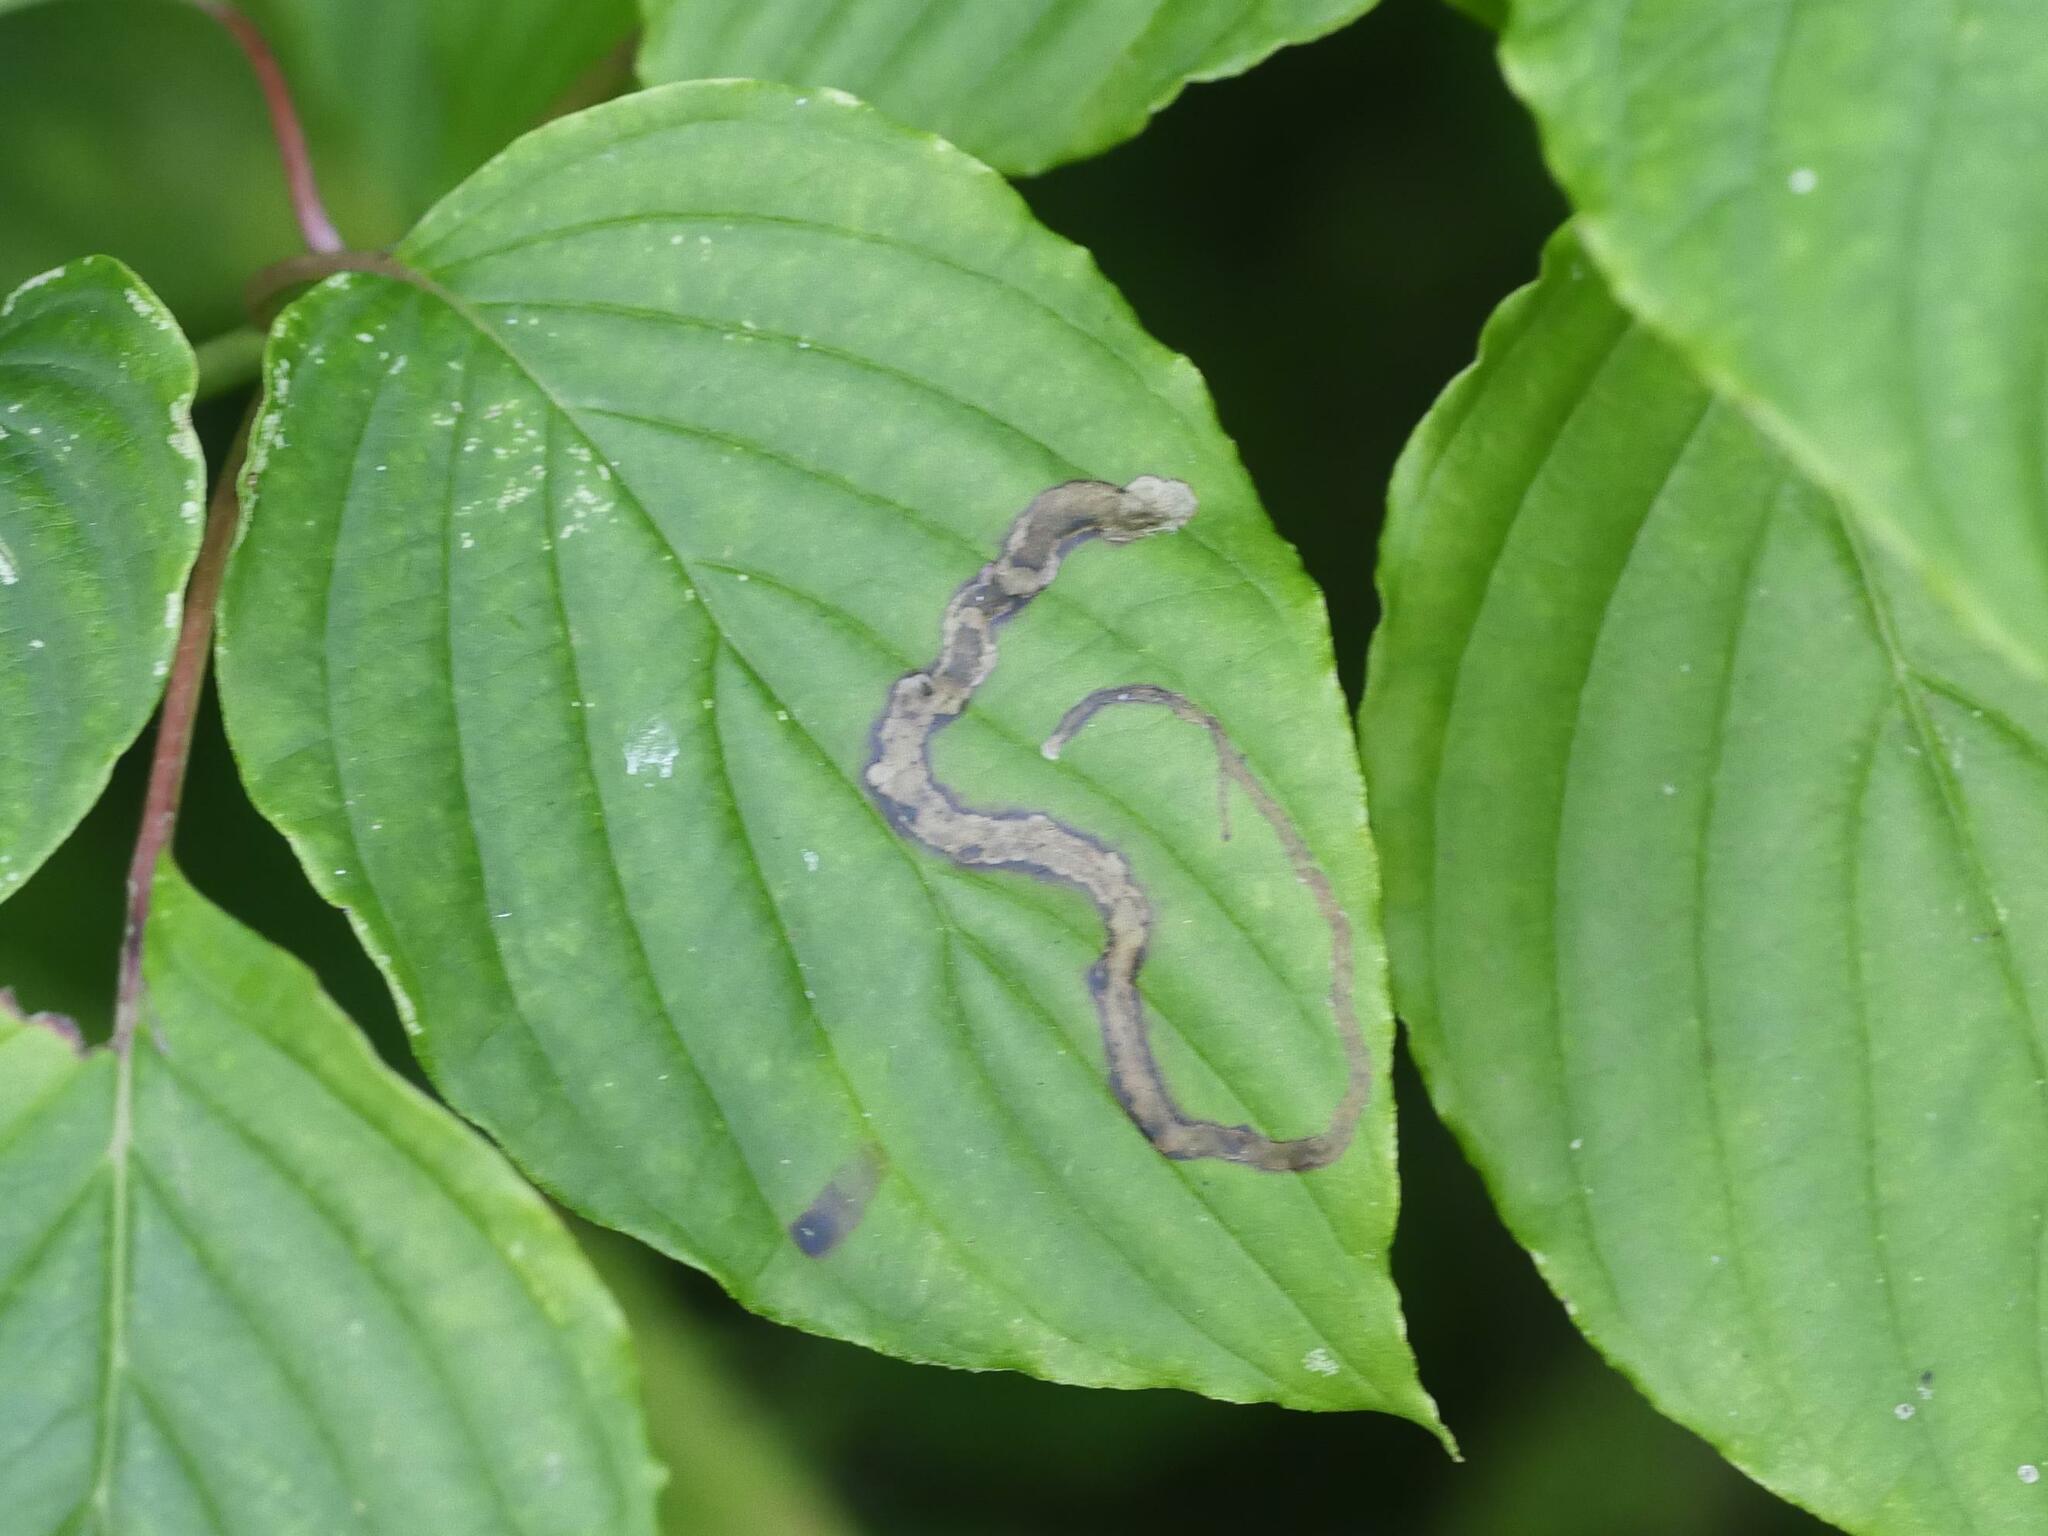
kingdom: Animalia
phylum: Arthropoda
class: Insecta
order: Diptera
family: Agromyzidae
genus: Phytomyza
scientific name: Phytomyza agromyzina
